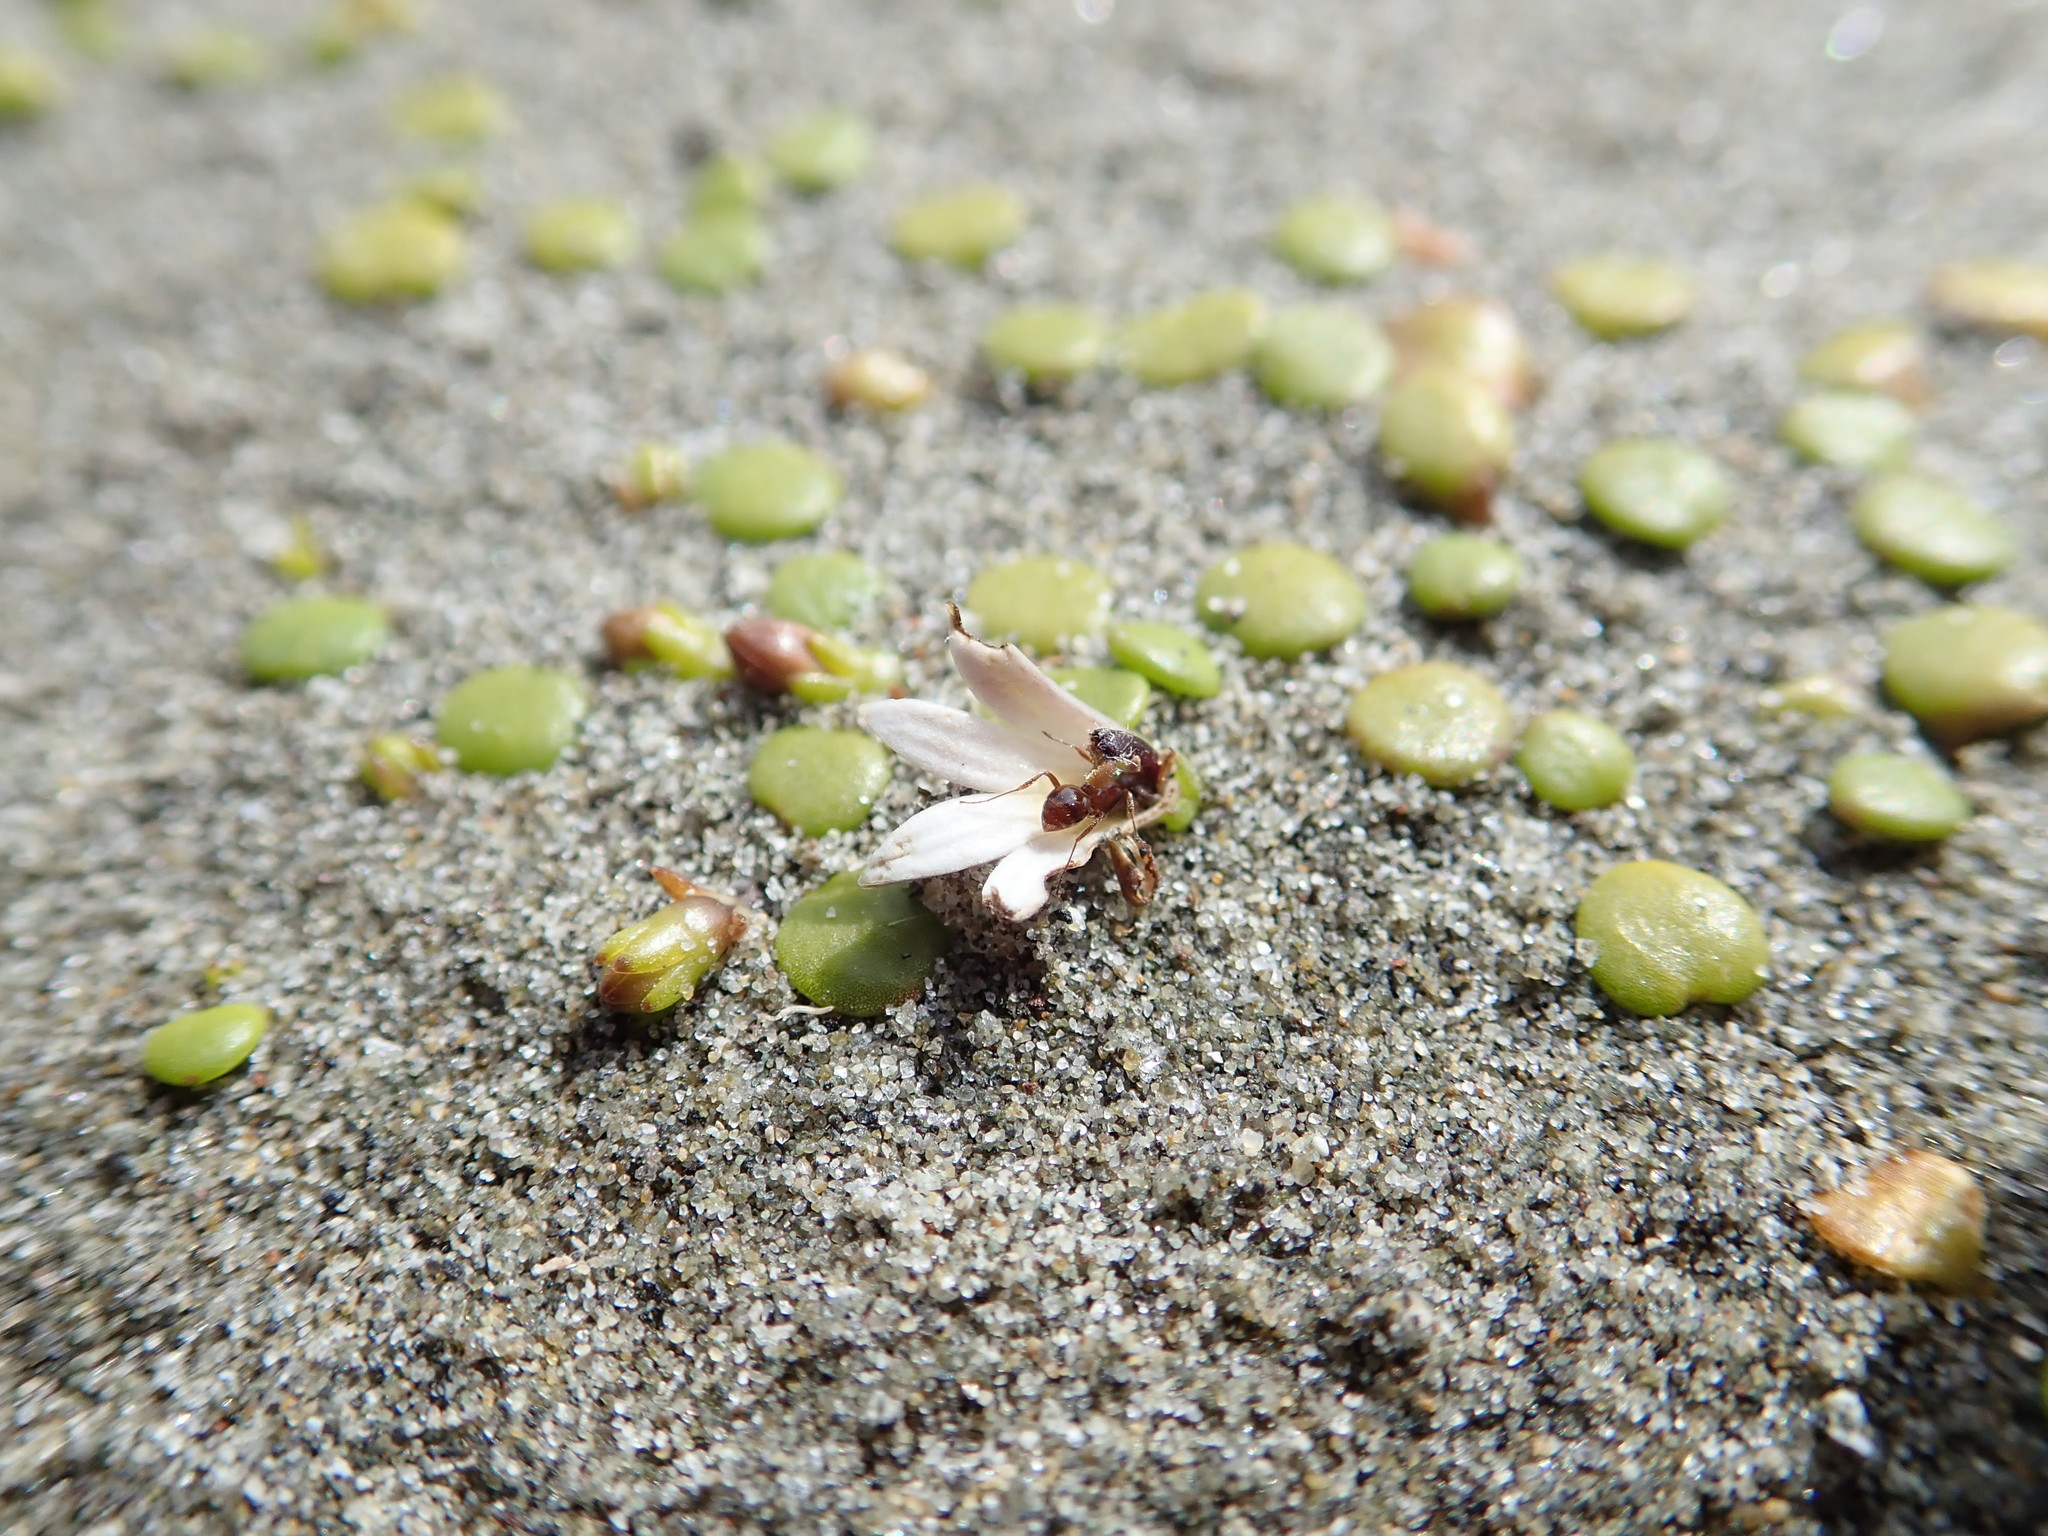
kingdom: Plantae
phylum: Tracheophyta
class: Magnoliopsida
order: Asterales
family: Goodeniaceae
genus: Goodenia
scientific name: Goodenia heenanii
